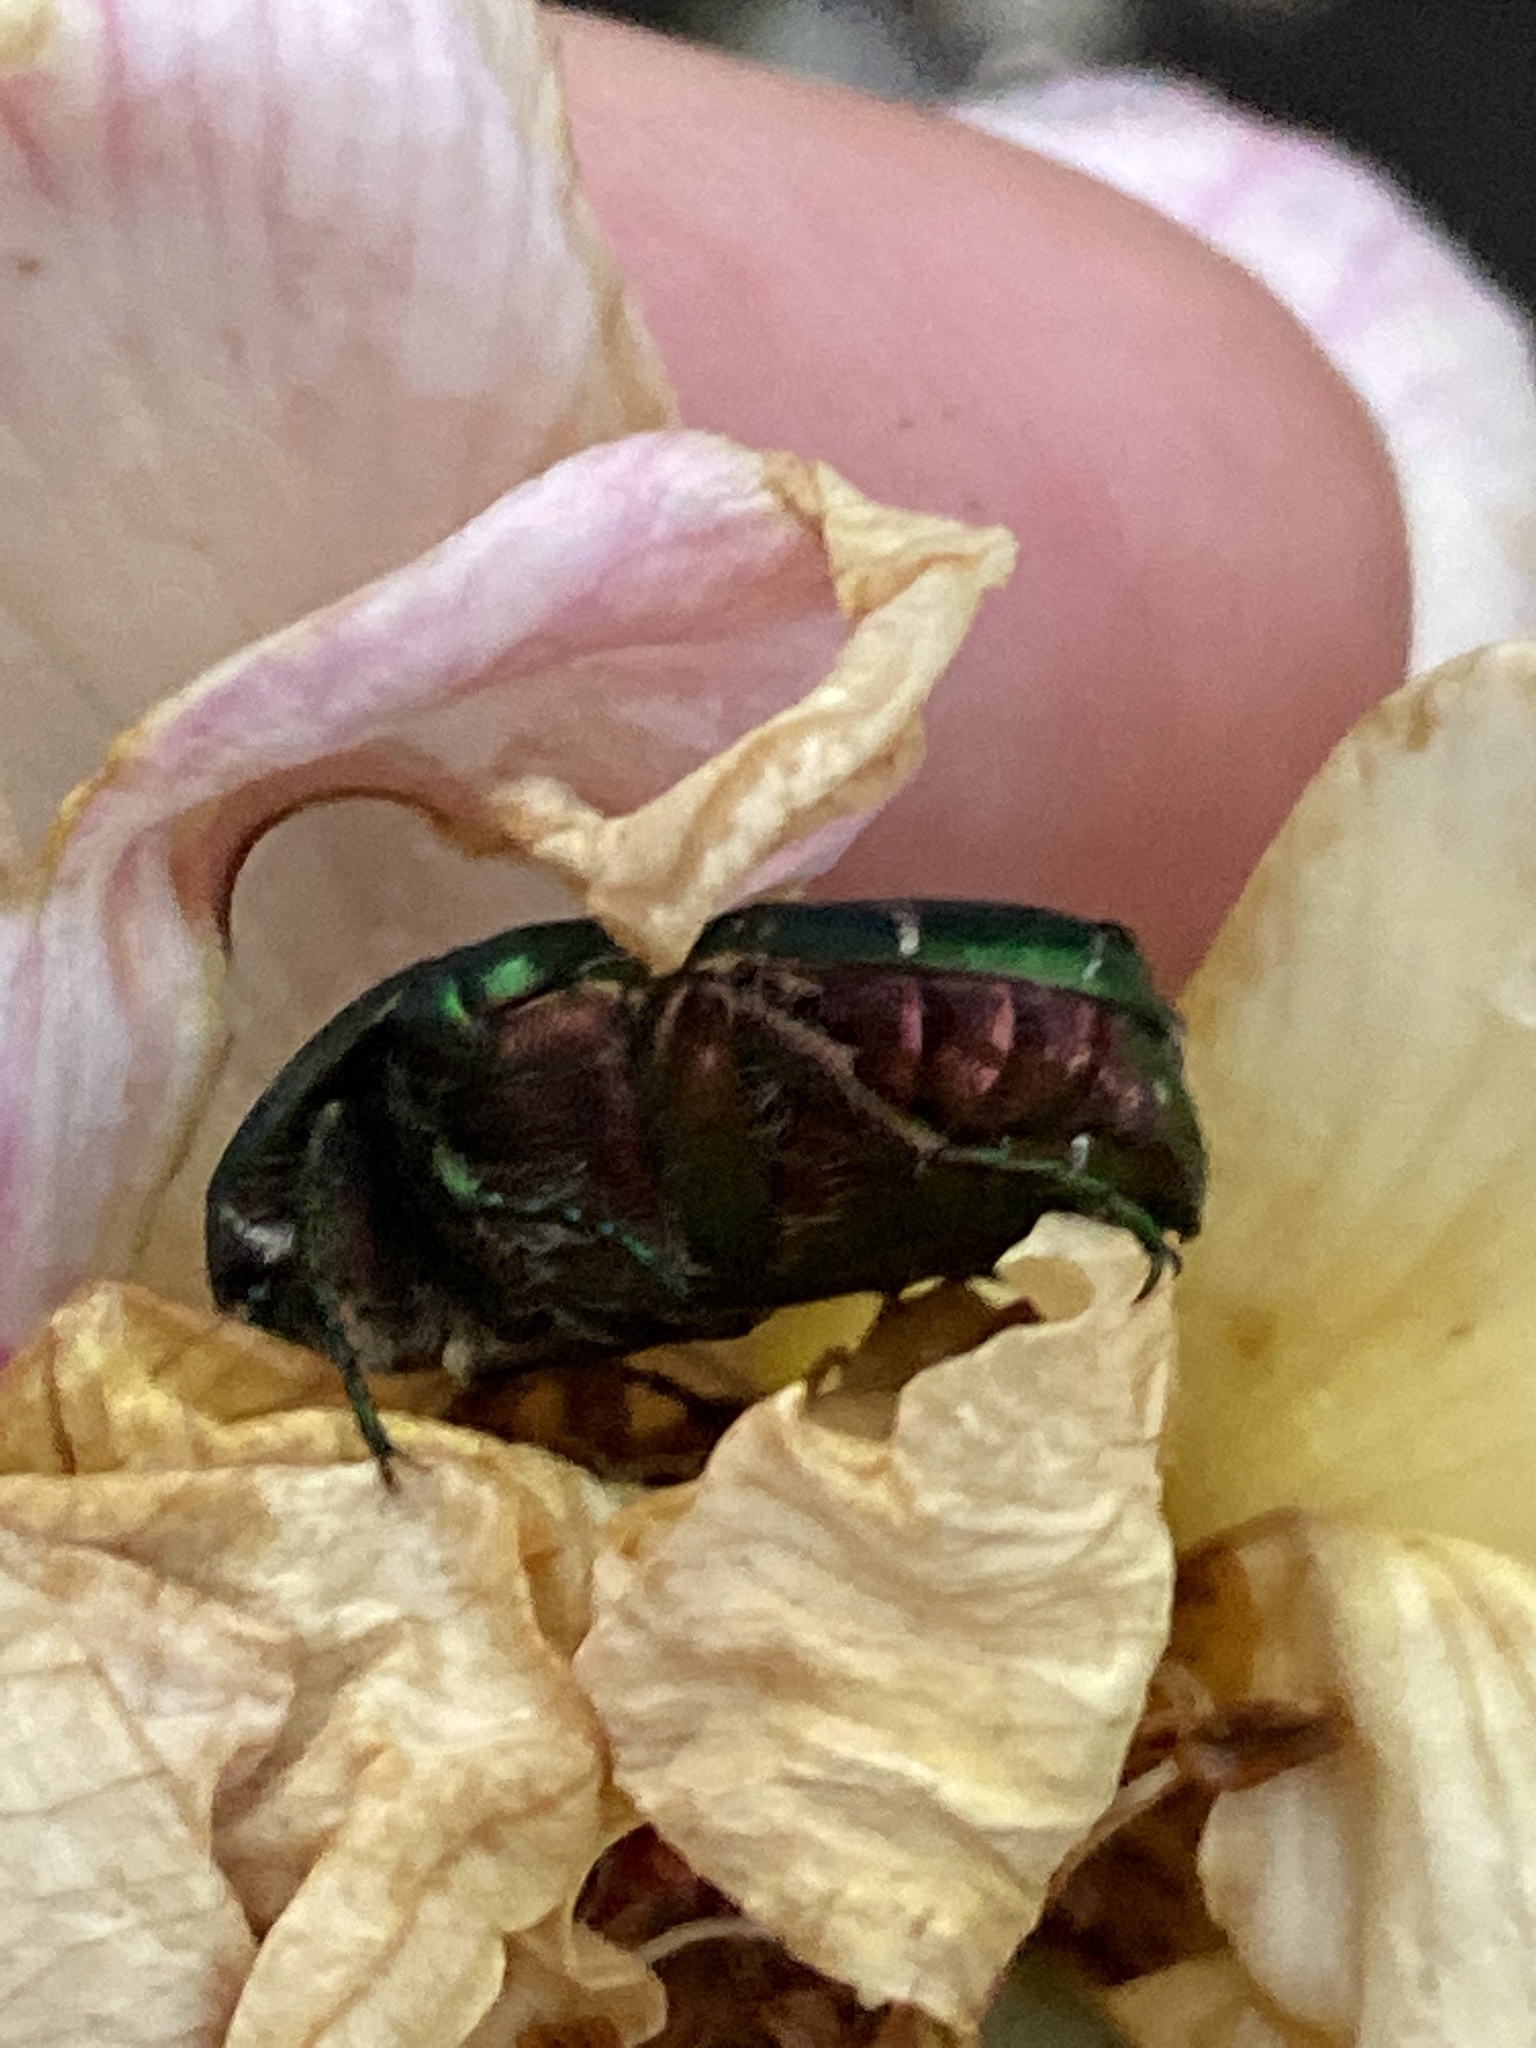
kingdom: Animalia
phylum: Arthropoda
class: Insecta
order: Coleoptera
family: Scarabaeidae
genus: Cetonia
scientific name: Cetonia aurata
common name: Rose chafer
